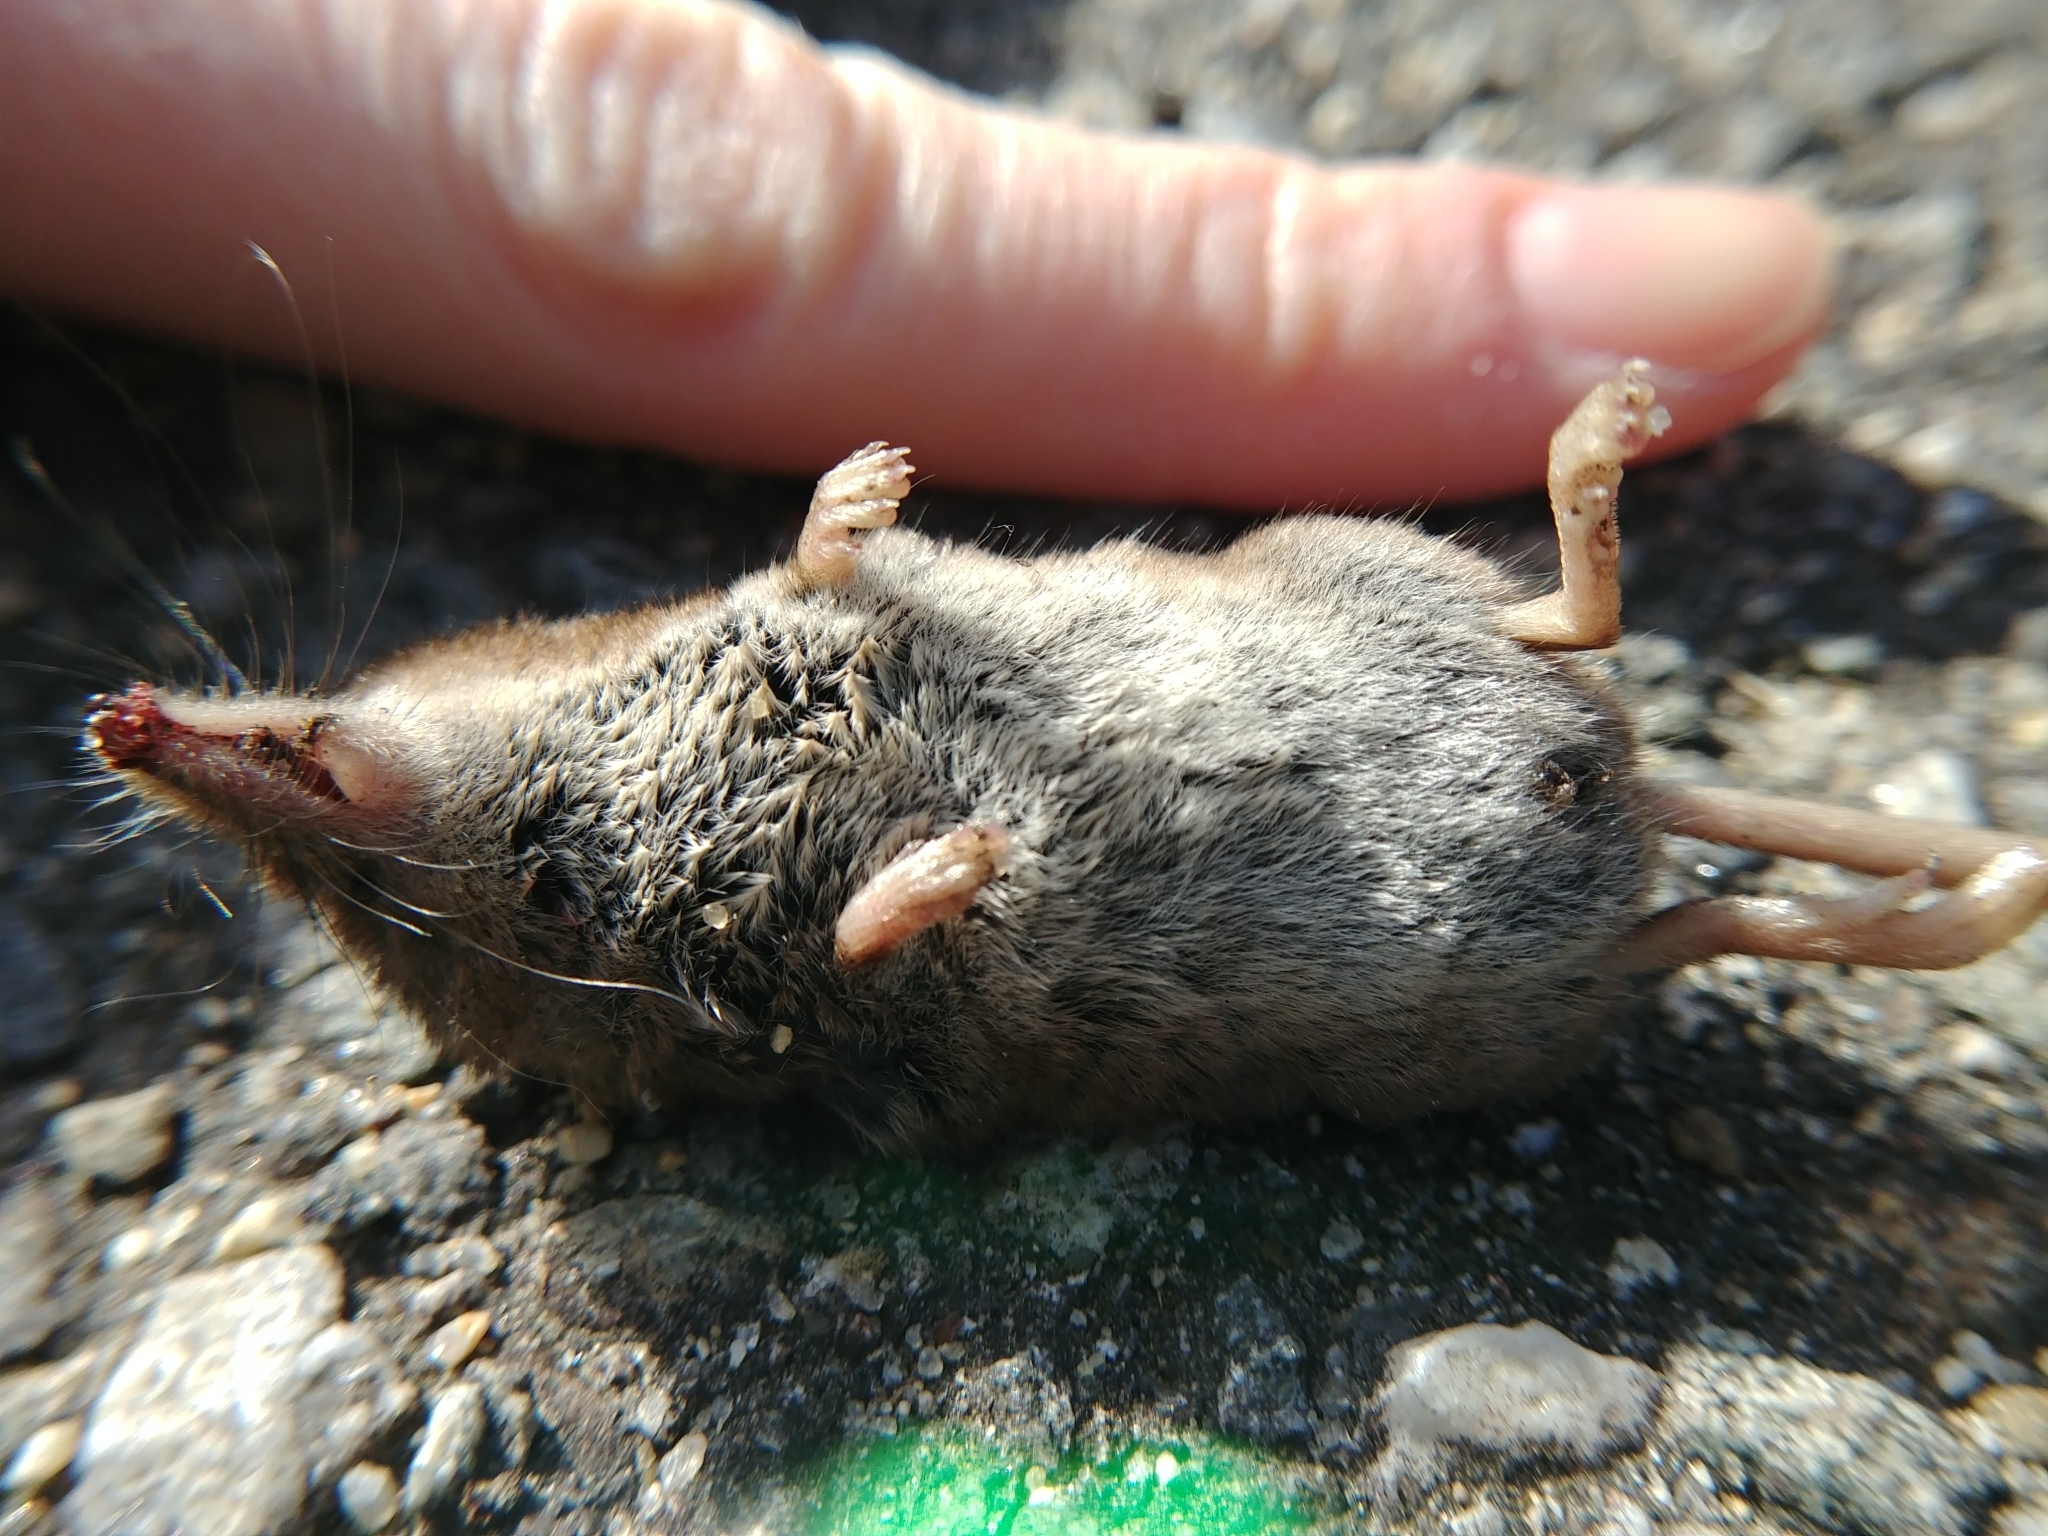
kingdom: Animalia
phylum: Chordata
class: Mammalia
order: Soricomorpha
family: Soricidae
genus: Sorex
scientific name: Sorex cinereus
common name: Cinereus shrew
